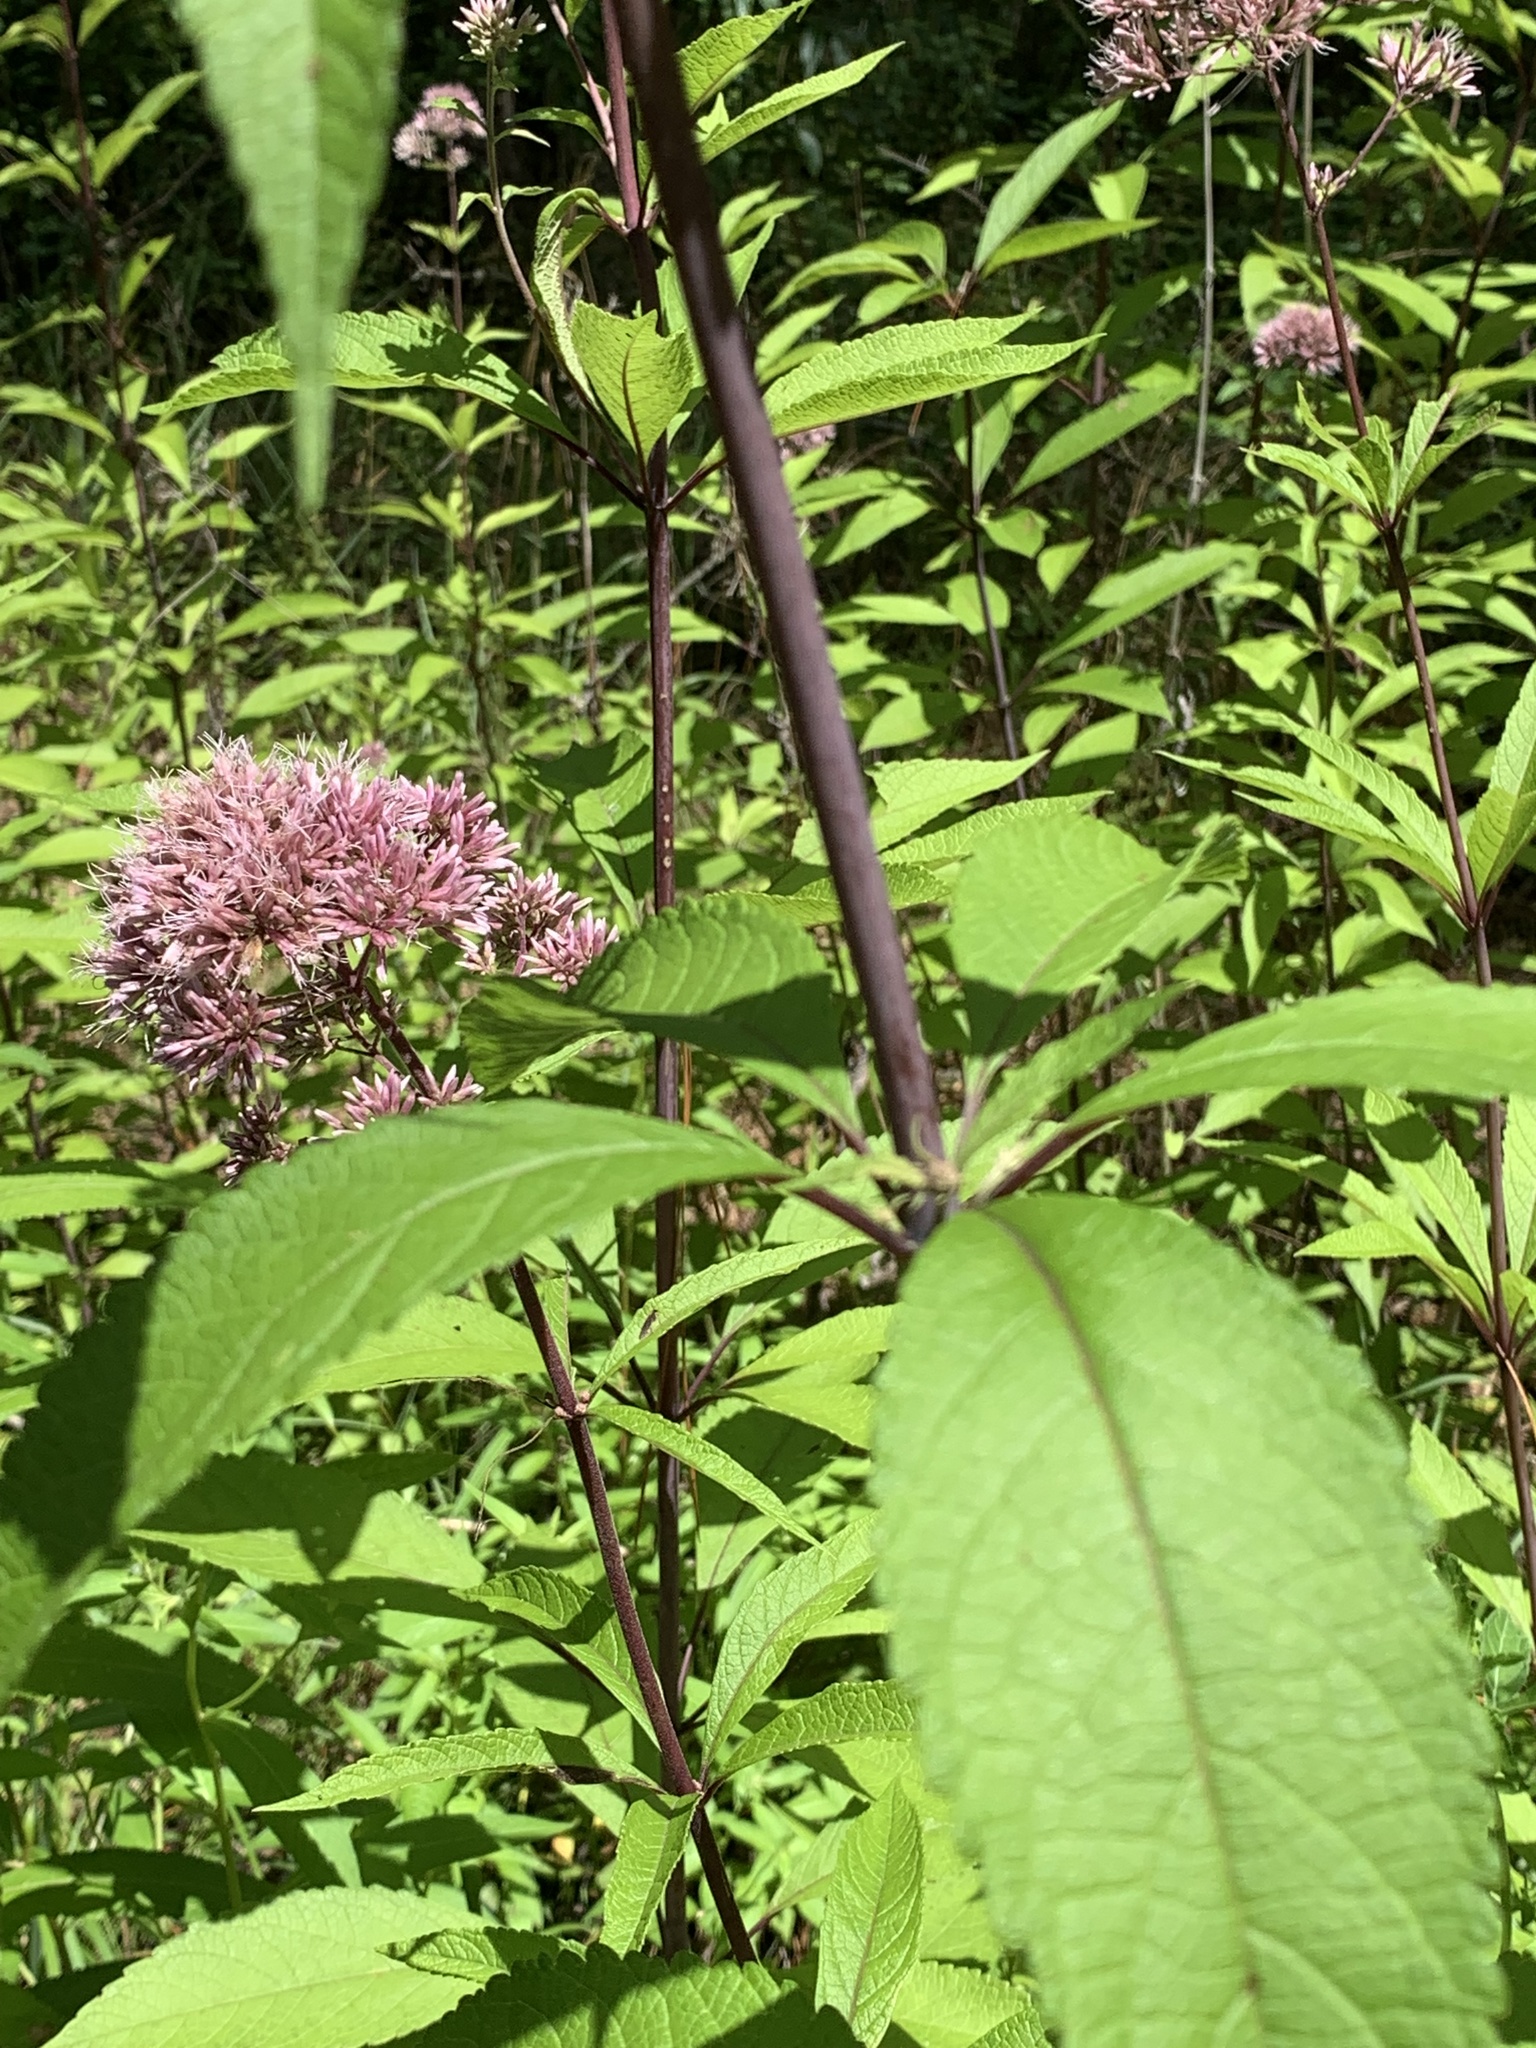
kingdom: Plantae
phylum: Tracheophyta
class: Magnoliopsida
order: Asterales
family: Asteraceae
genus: Eutrochium
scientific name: Eutrochium fistulosum
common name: Trumpetweed
